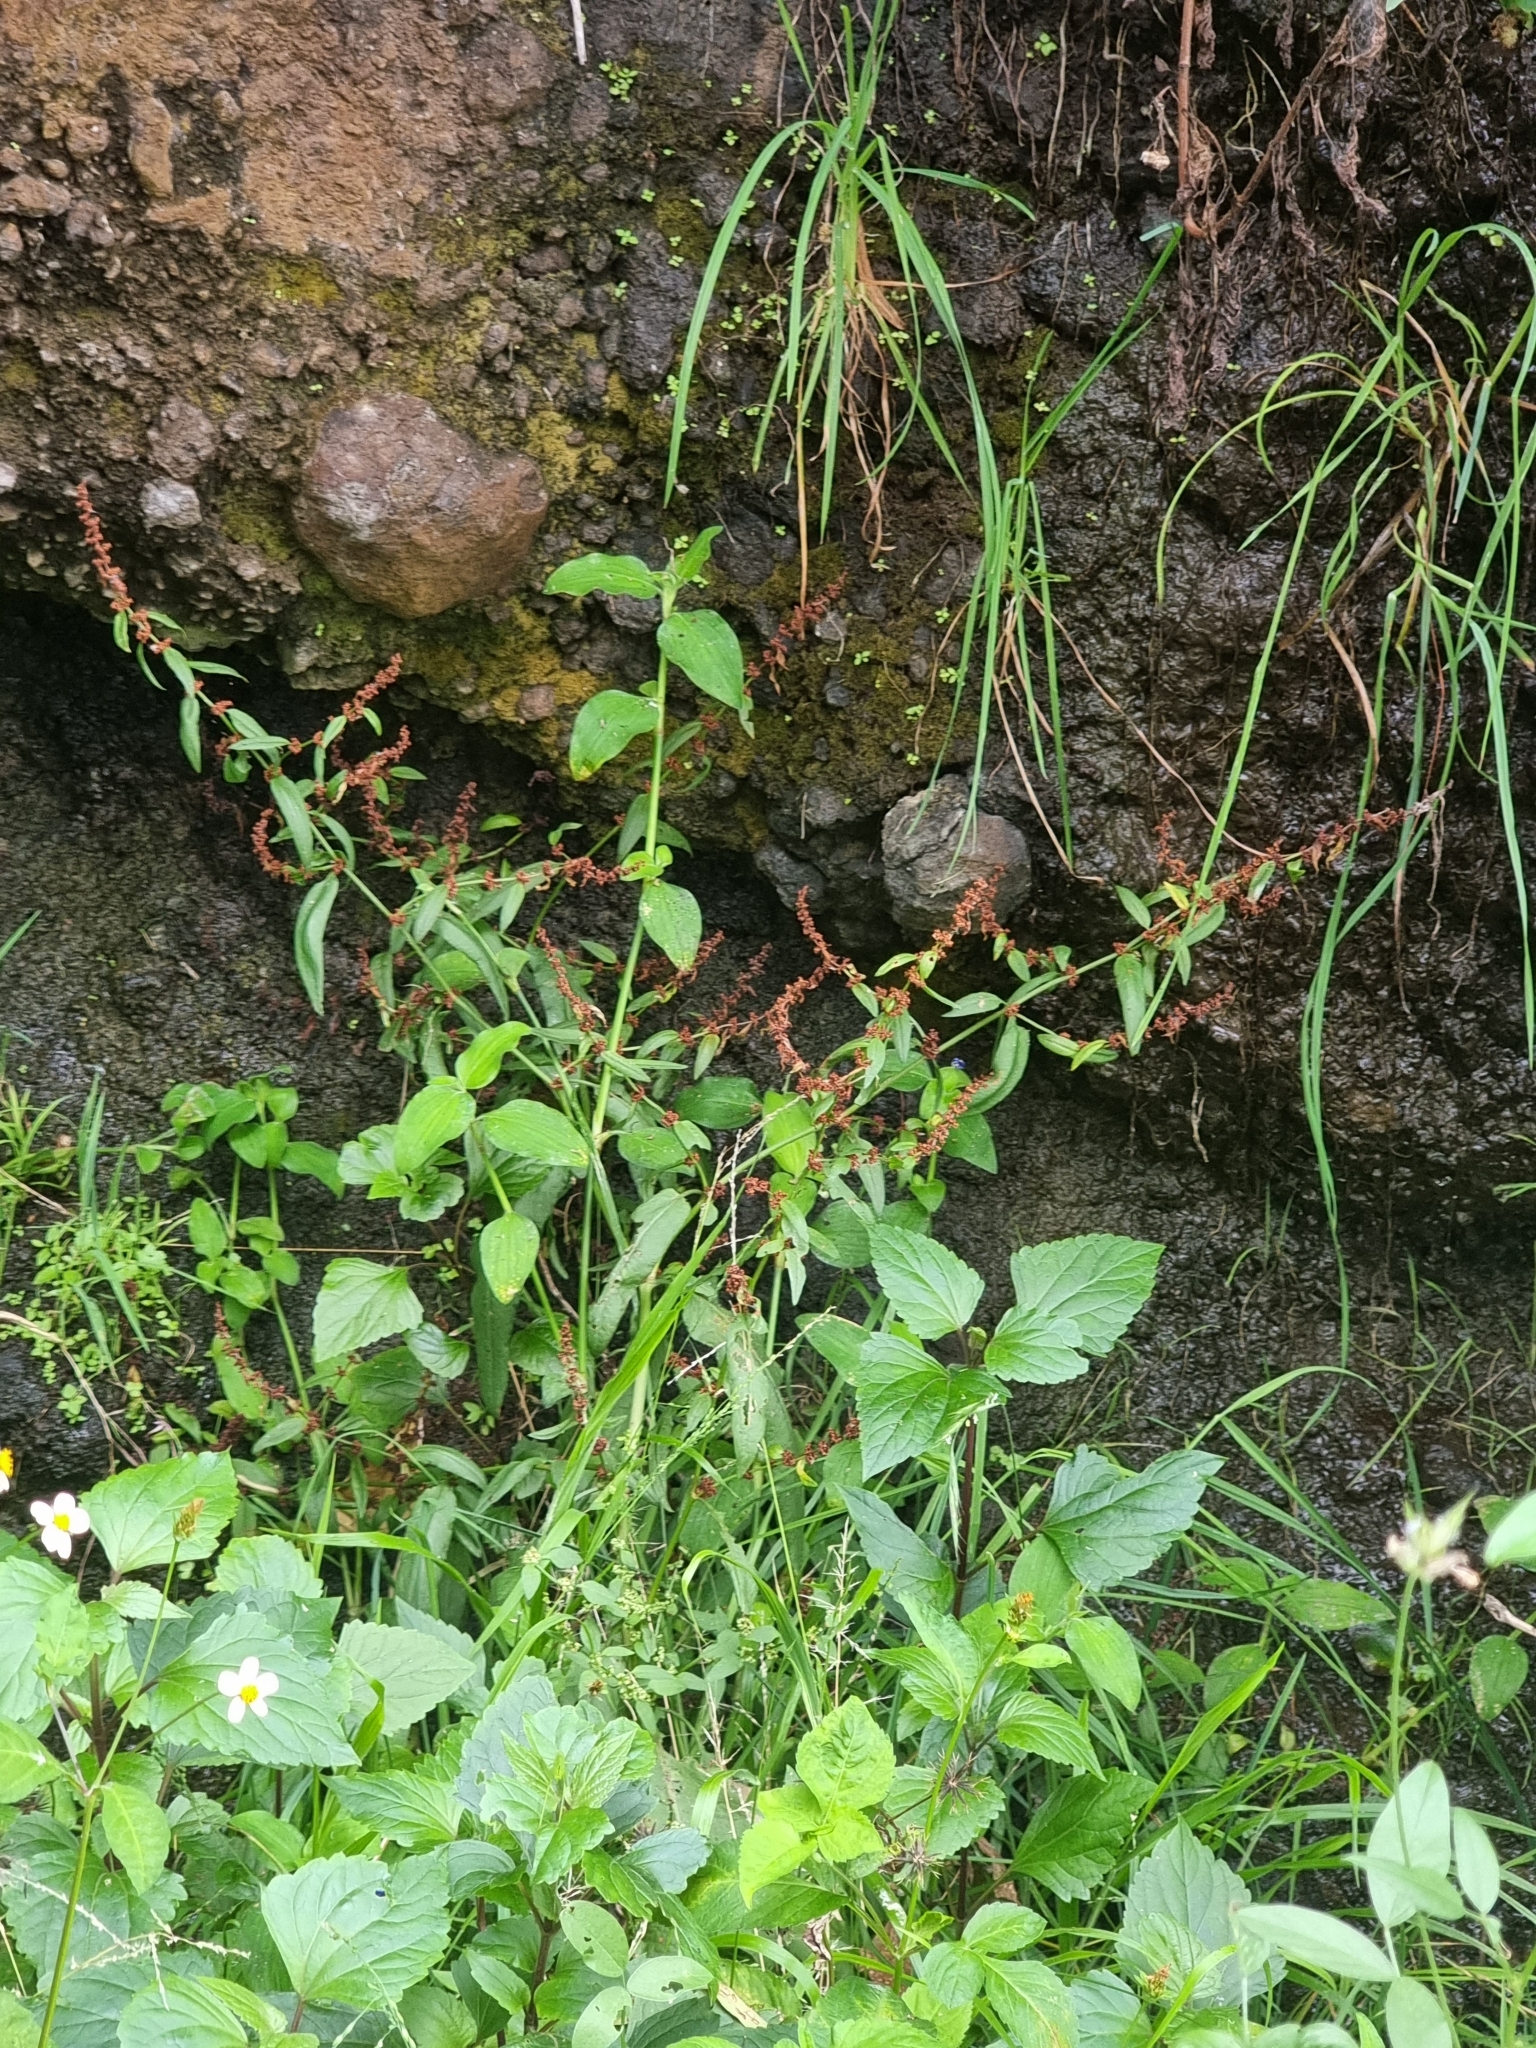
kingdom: Plantae
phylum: Tracheophyta
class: Magnoliopsida
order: Caryophyllales
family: Polygonaceae
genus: Rumex
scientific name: Rumex conglomeratus
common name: Clustered dock
